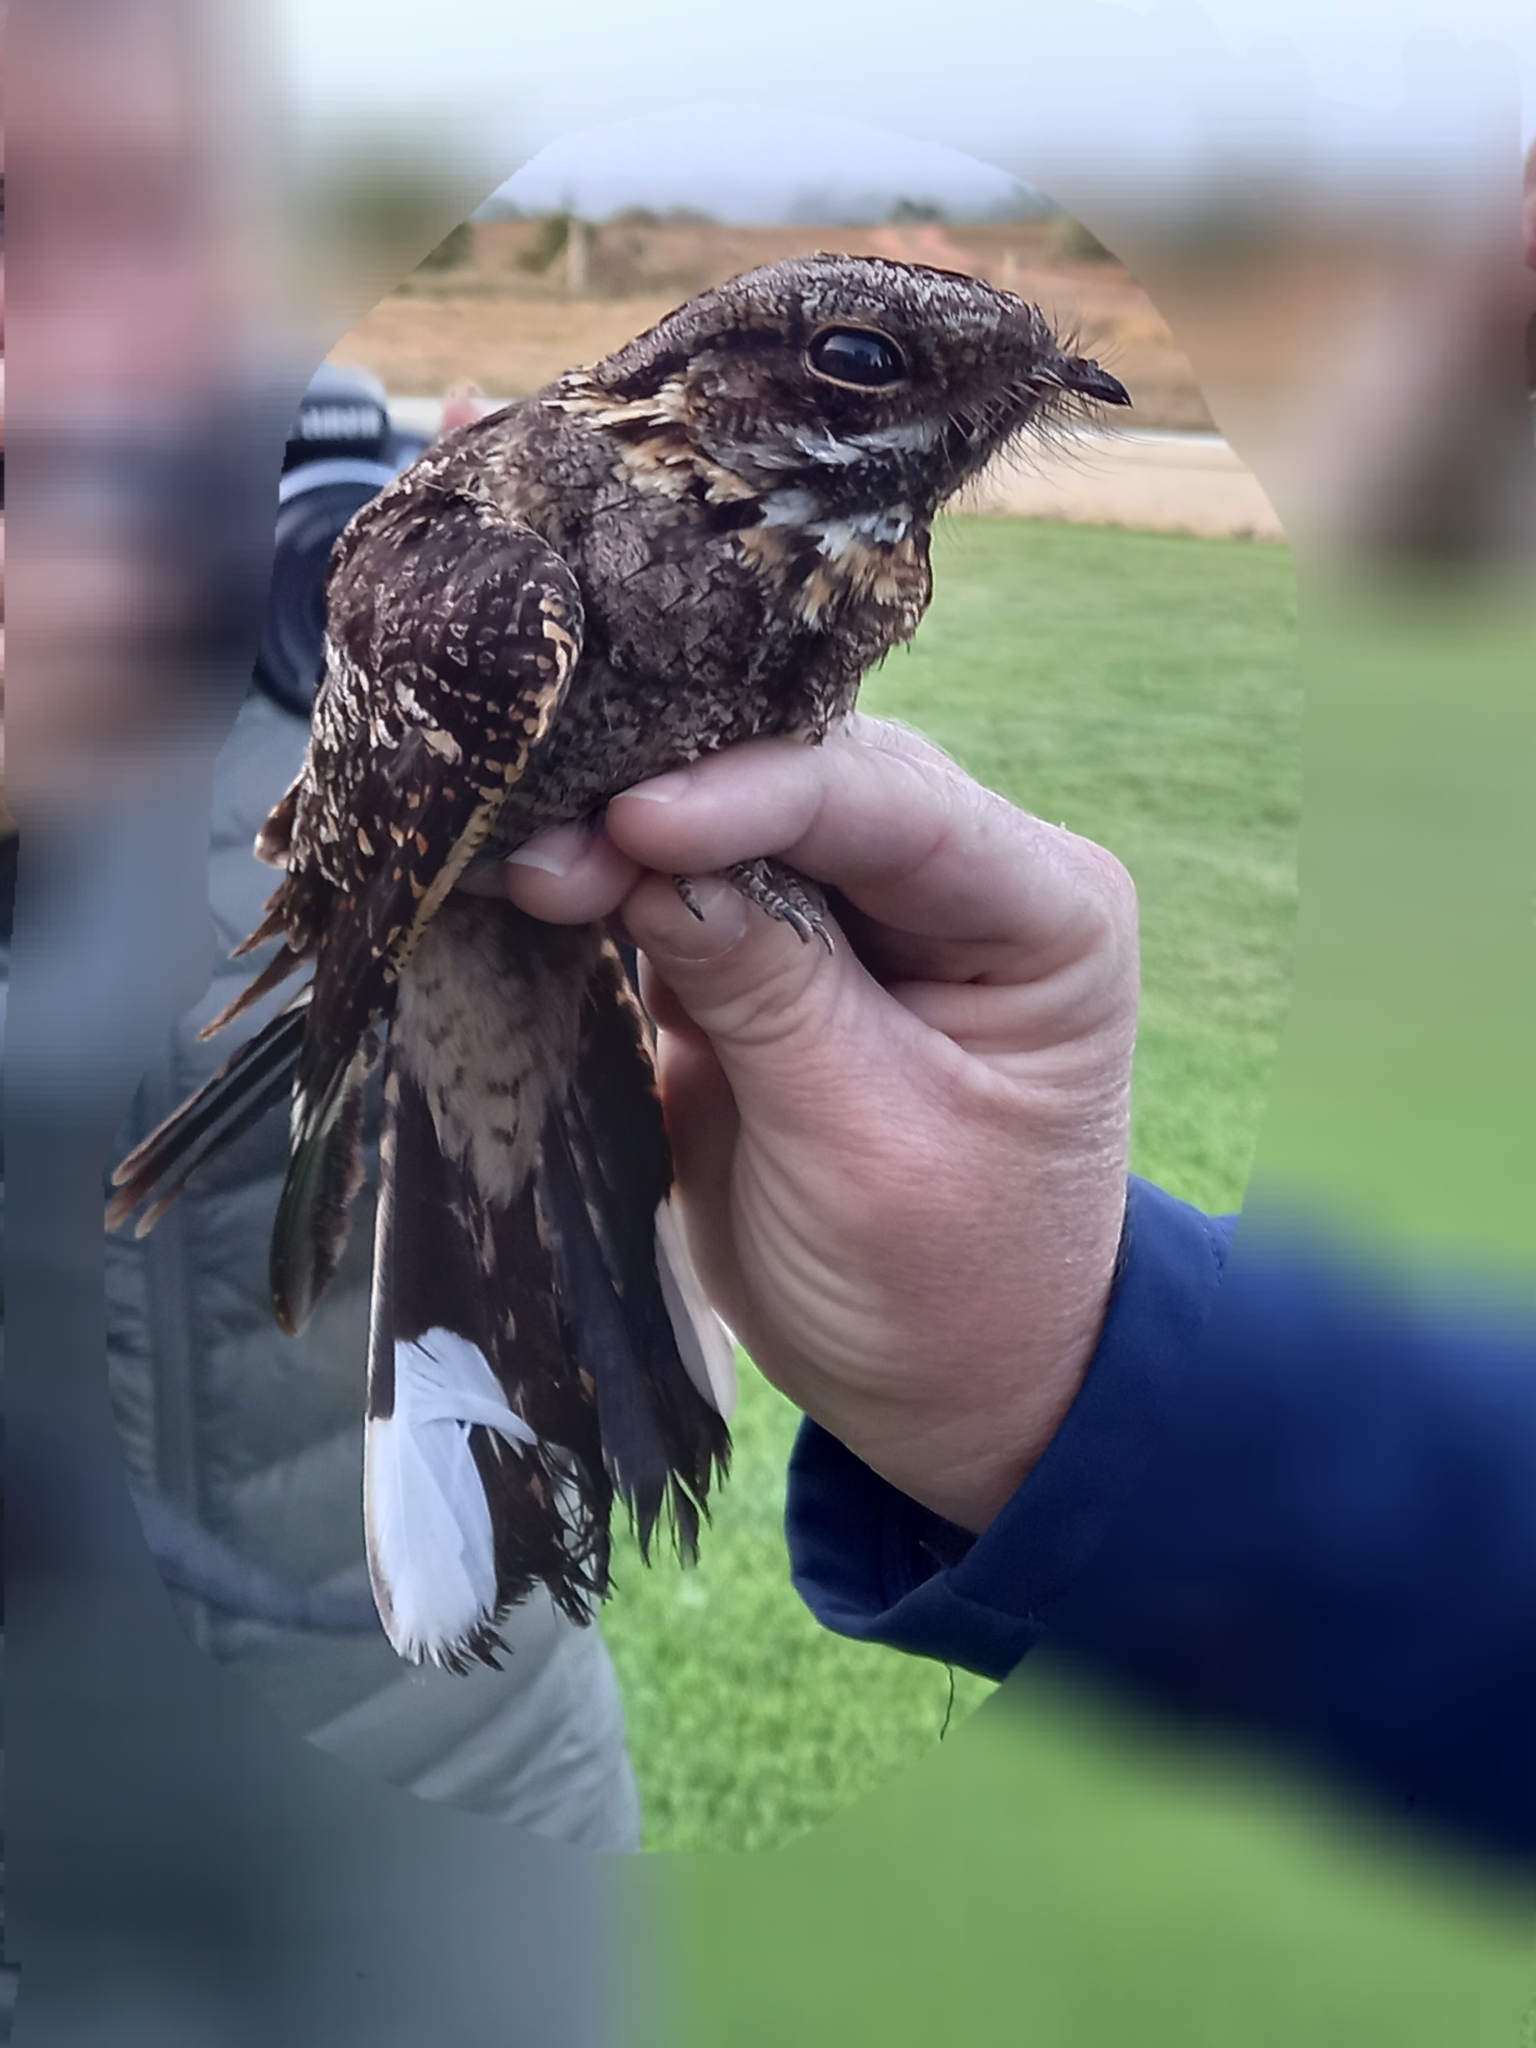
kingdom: Animalia
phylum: Chordata
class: Aves
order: Caprimulgiformes
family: Caprimulgidae
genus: Caprimulgus
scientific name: Caprimulgus pectoralis
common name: Fiery-necked nightjar
